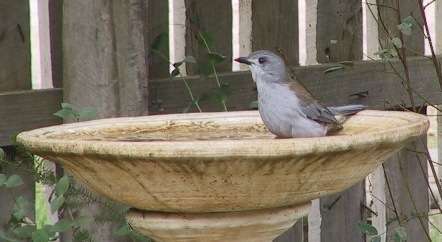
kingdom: Animalia
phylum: Chordata
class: Aves
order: Passeriformes
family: Pachycephalidae
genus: Colluricincla
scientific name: Colluricincla harmonica
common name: Grey shrikethrush
